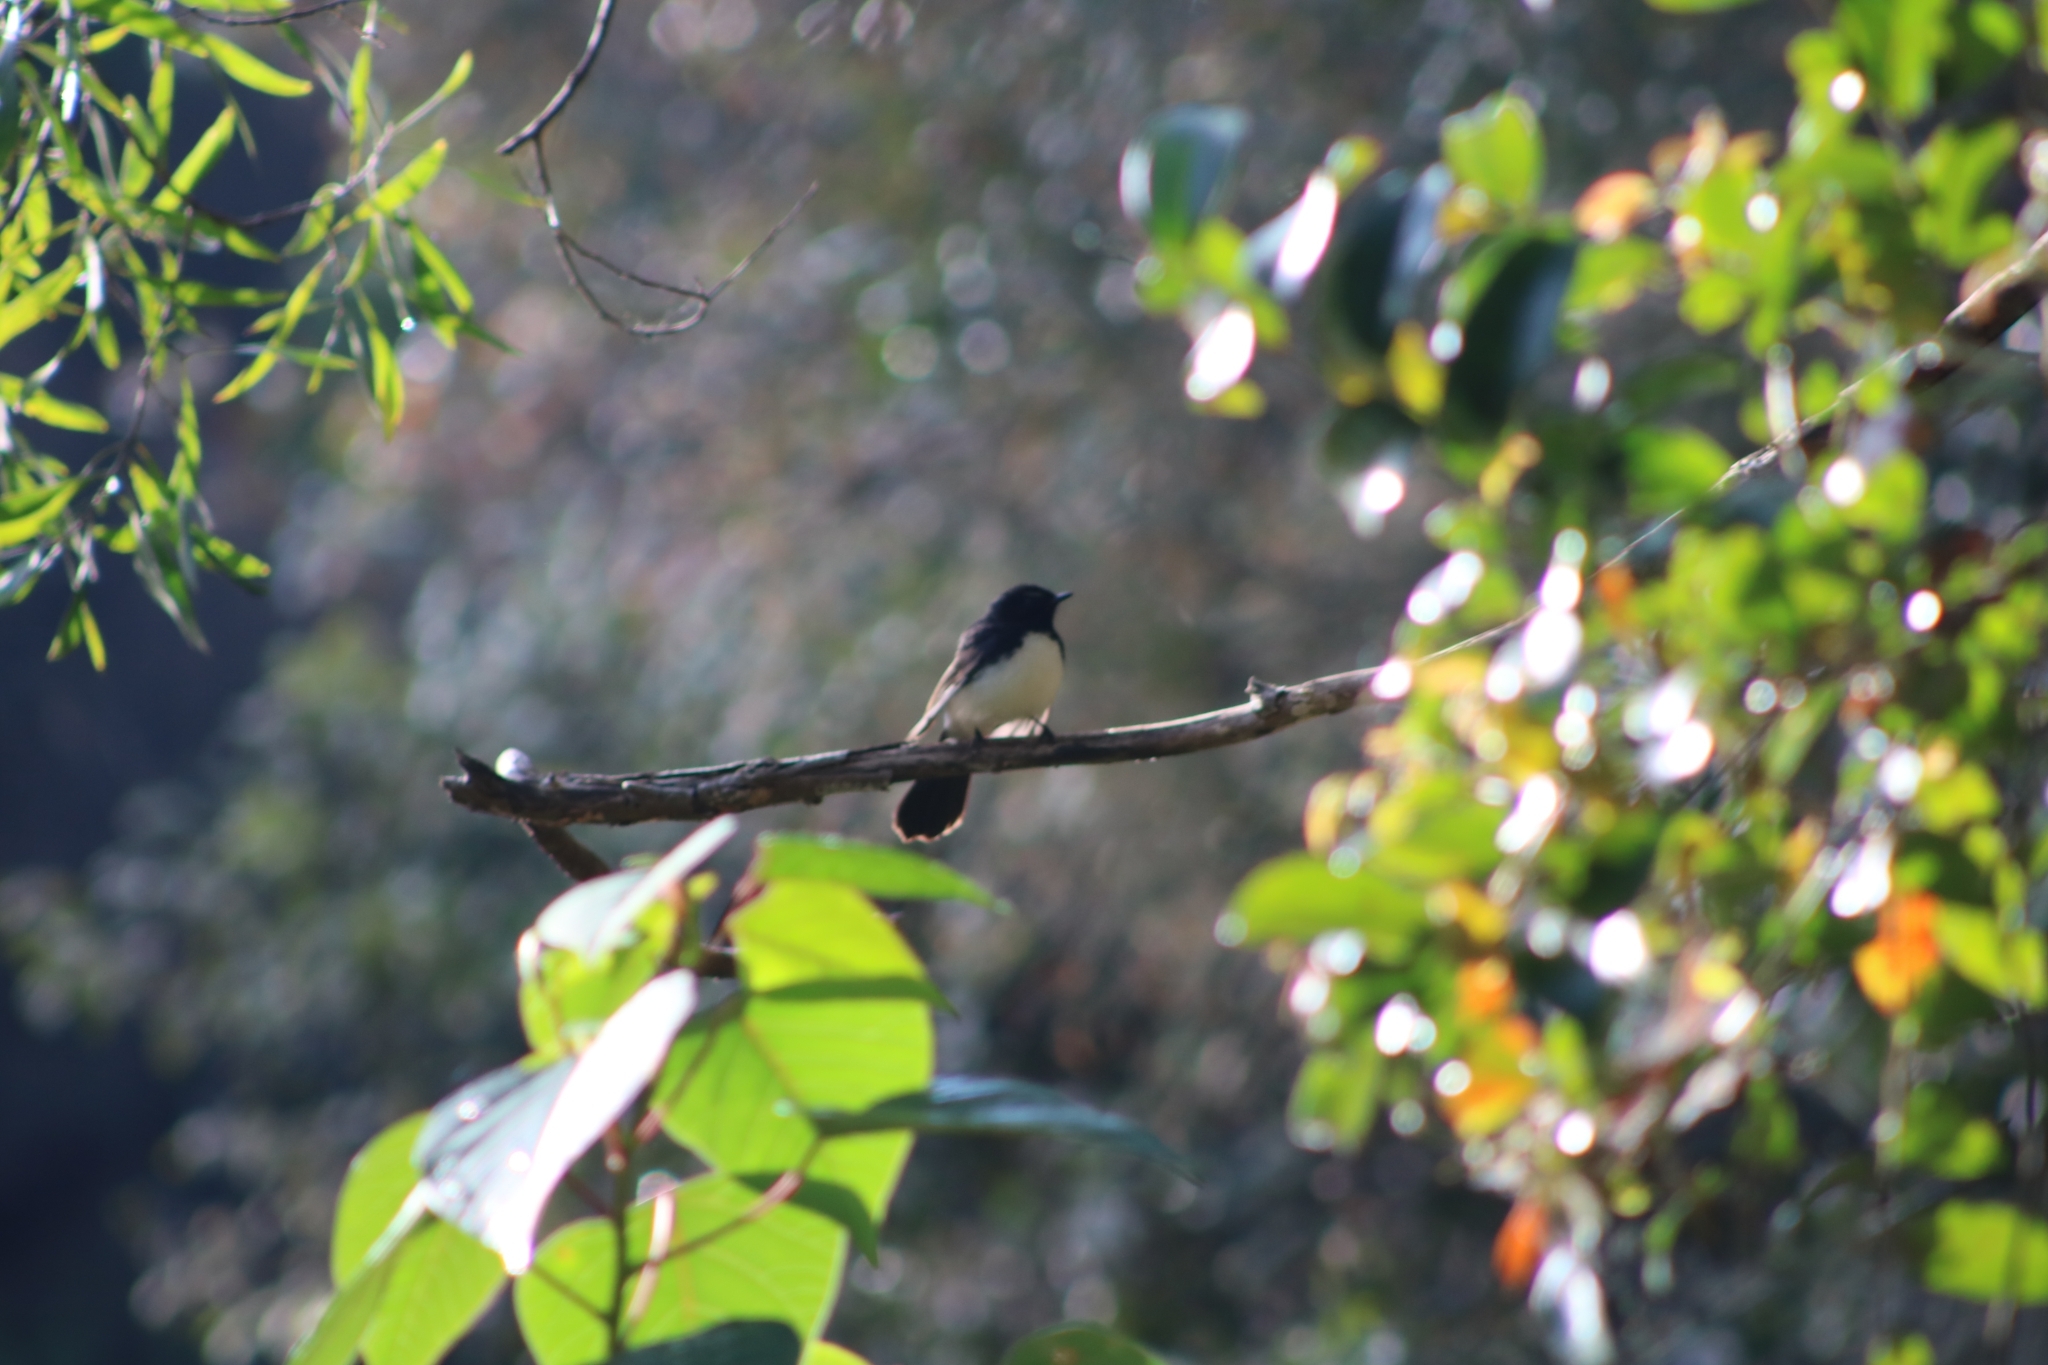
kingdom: Animalia
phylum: Chordata
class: Aves
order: Passeriformes
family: Rhipiduridae
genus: Rhipidura
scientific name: Rhipidura leucophrys
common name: Willie wagtail
